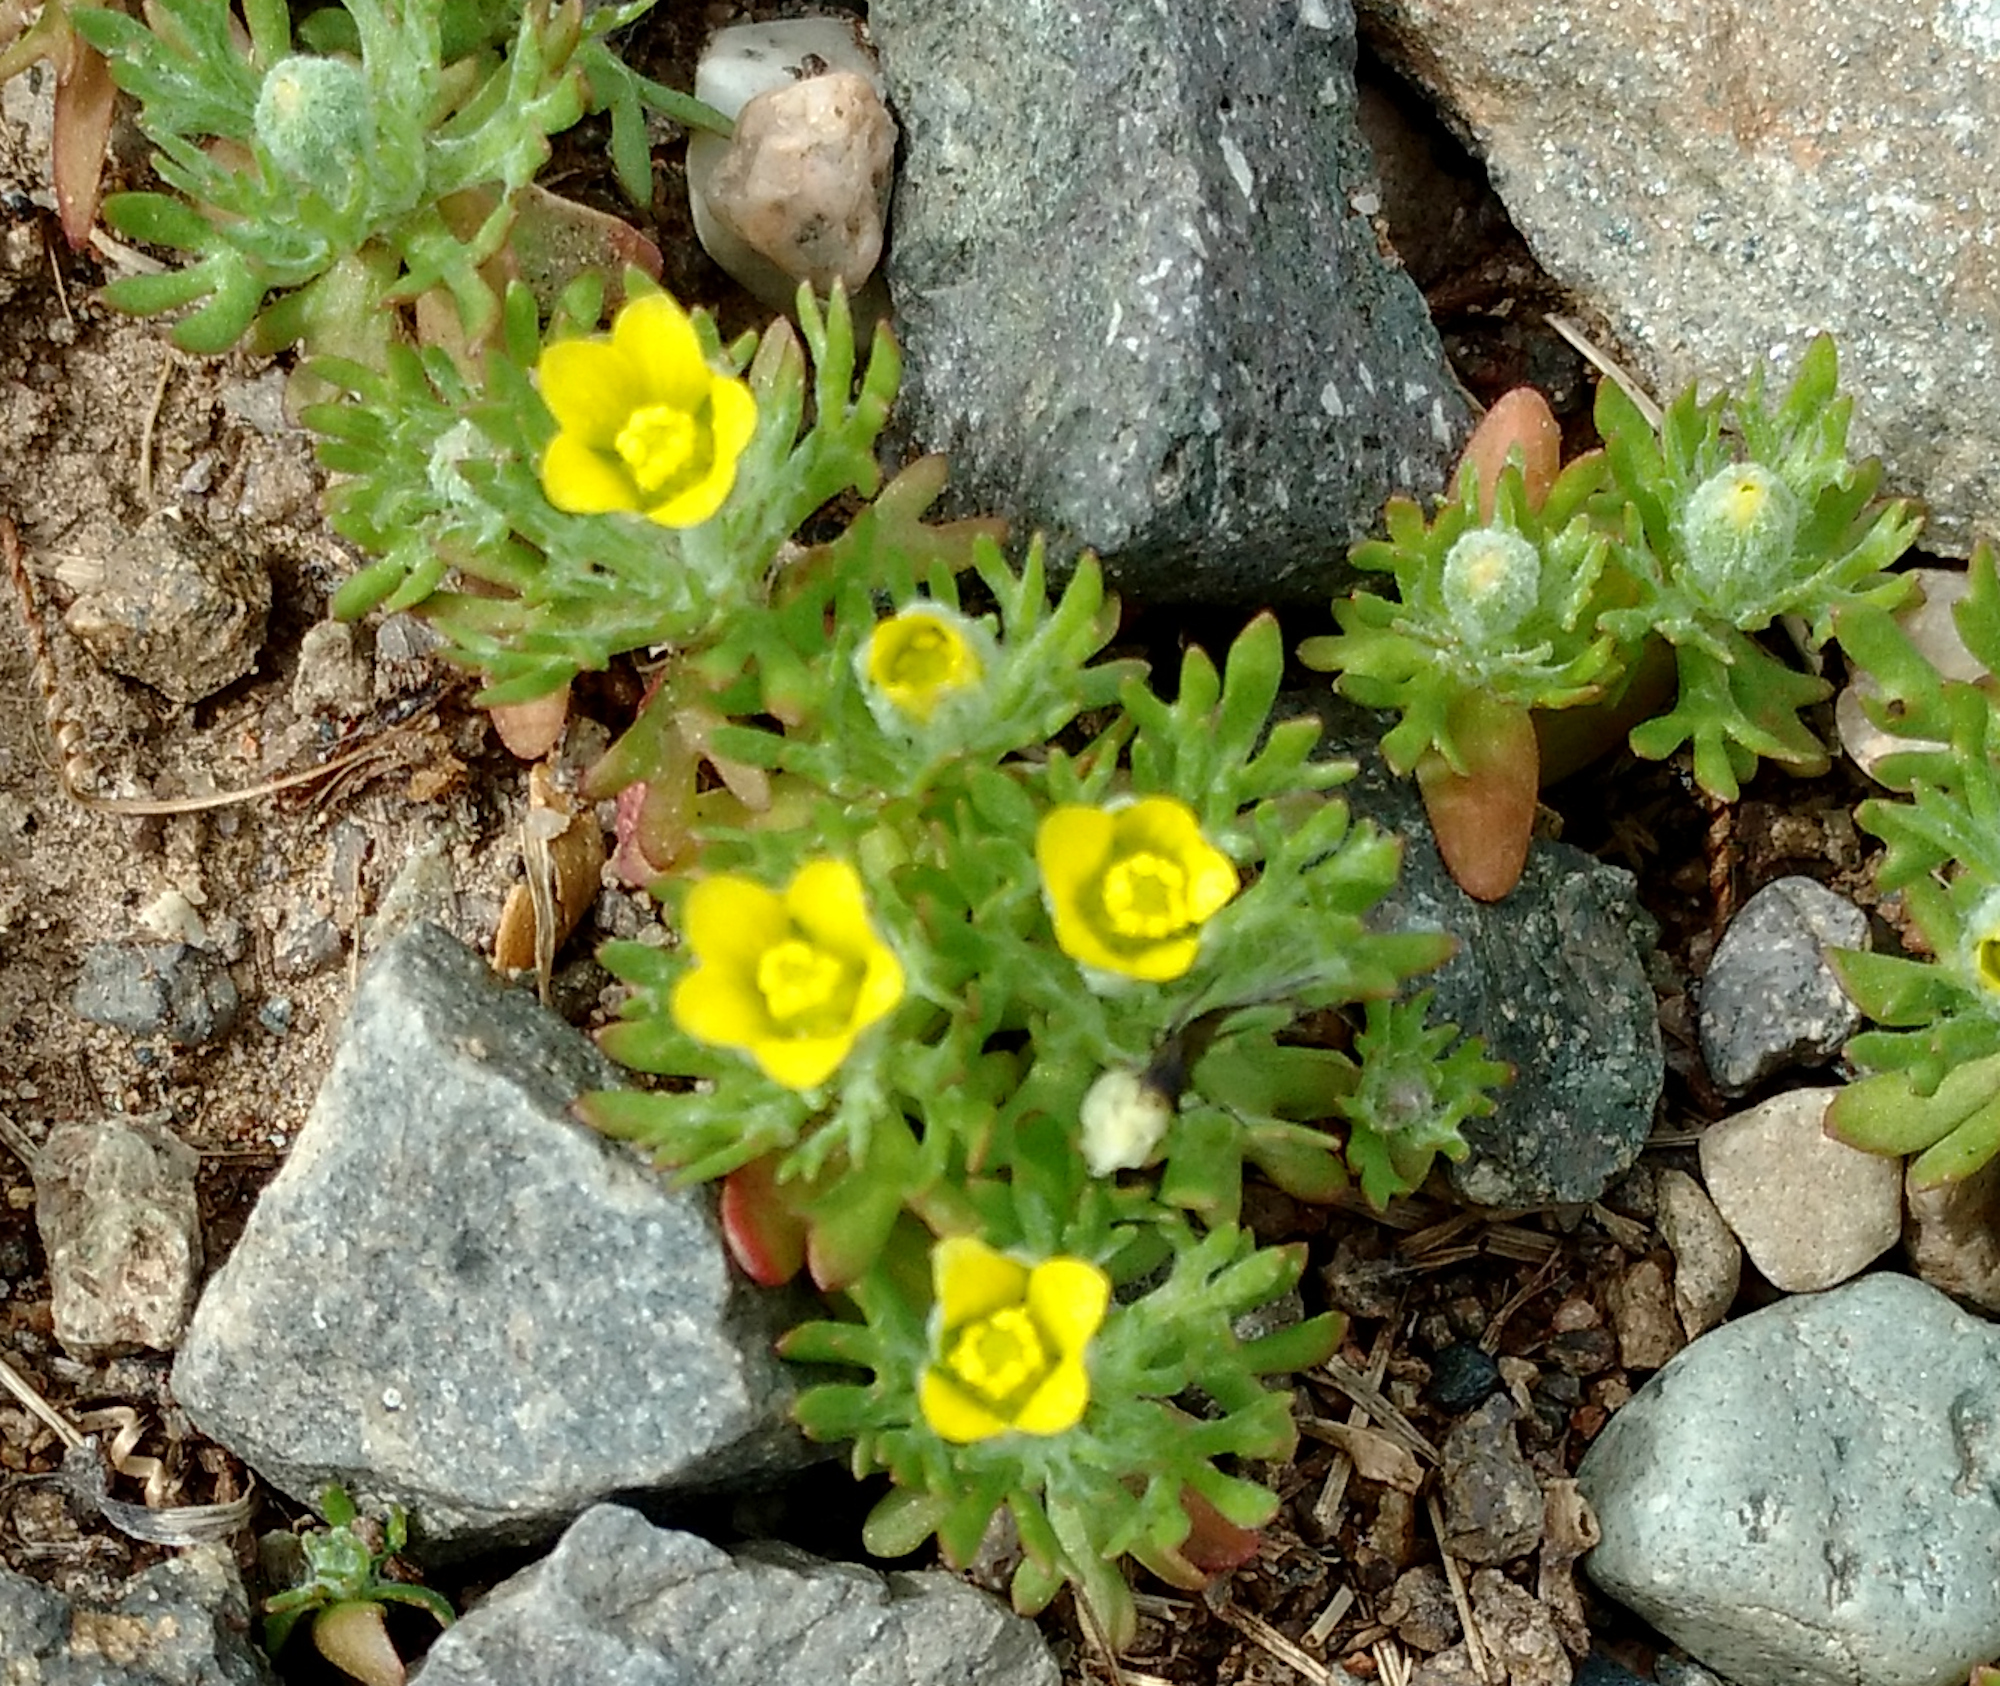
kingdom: Plantae
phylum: Tracheophyta
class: Magnoliopsida
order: Ranunculales
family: Ranunculaceae
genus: Ceratocephala
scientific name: Ceratocephala orthoceras
